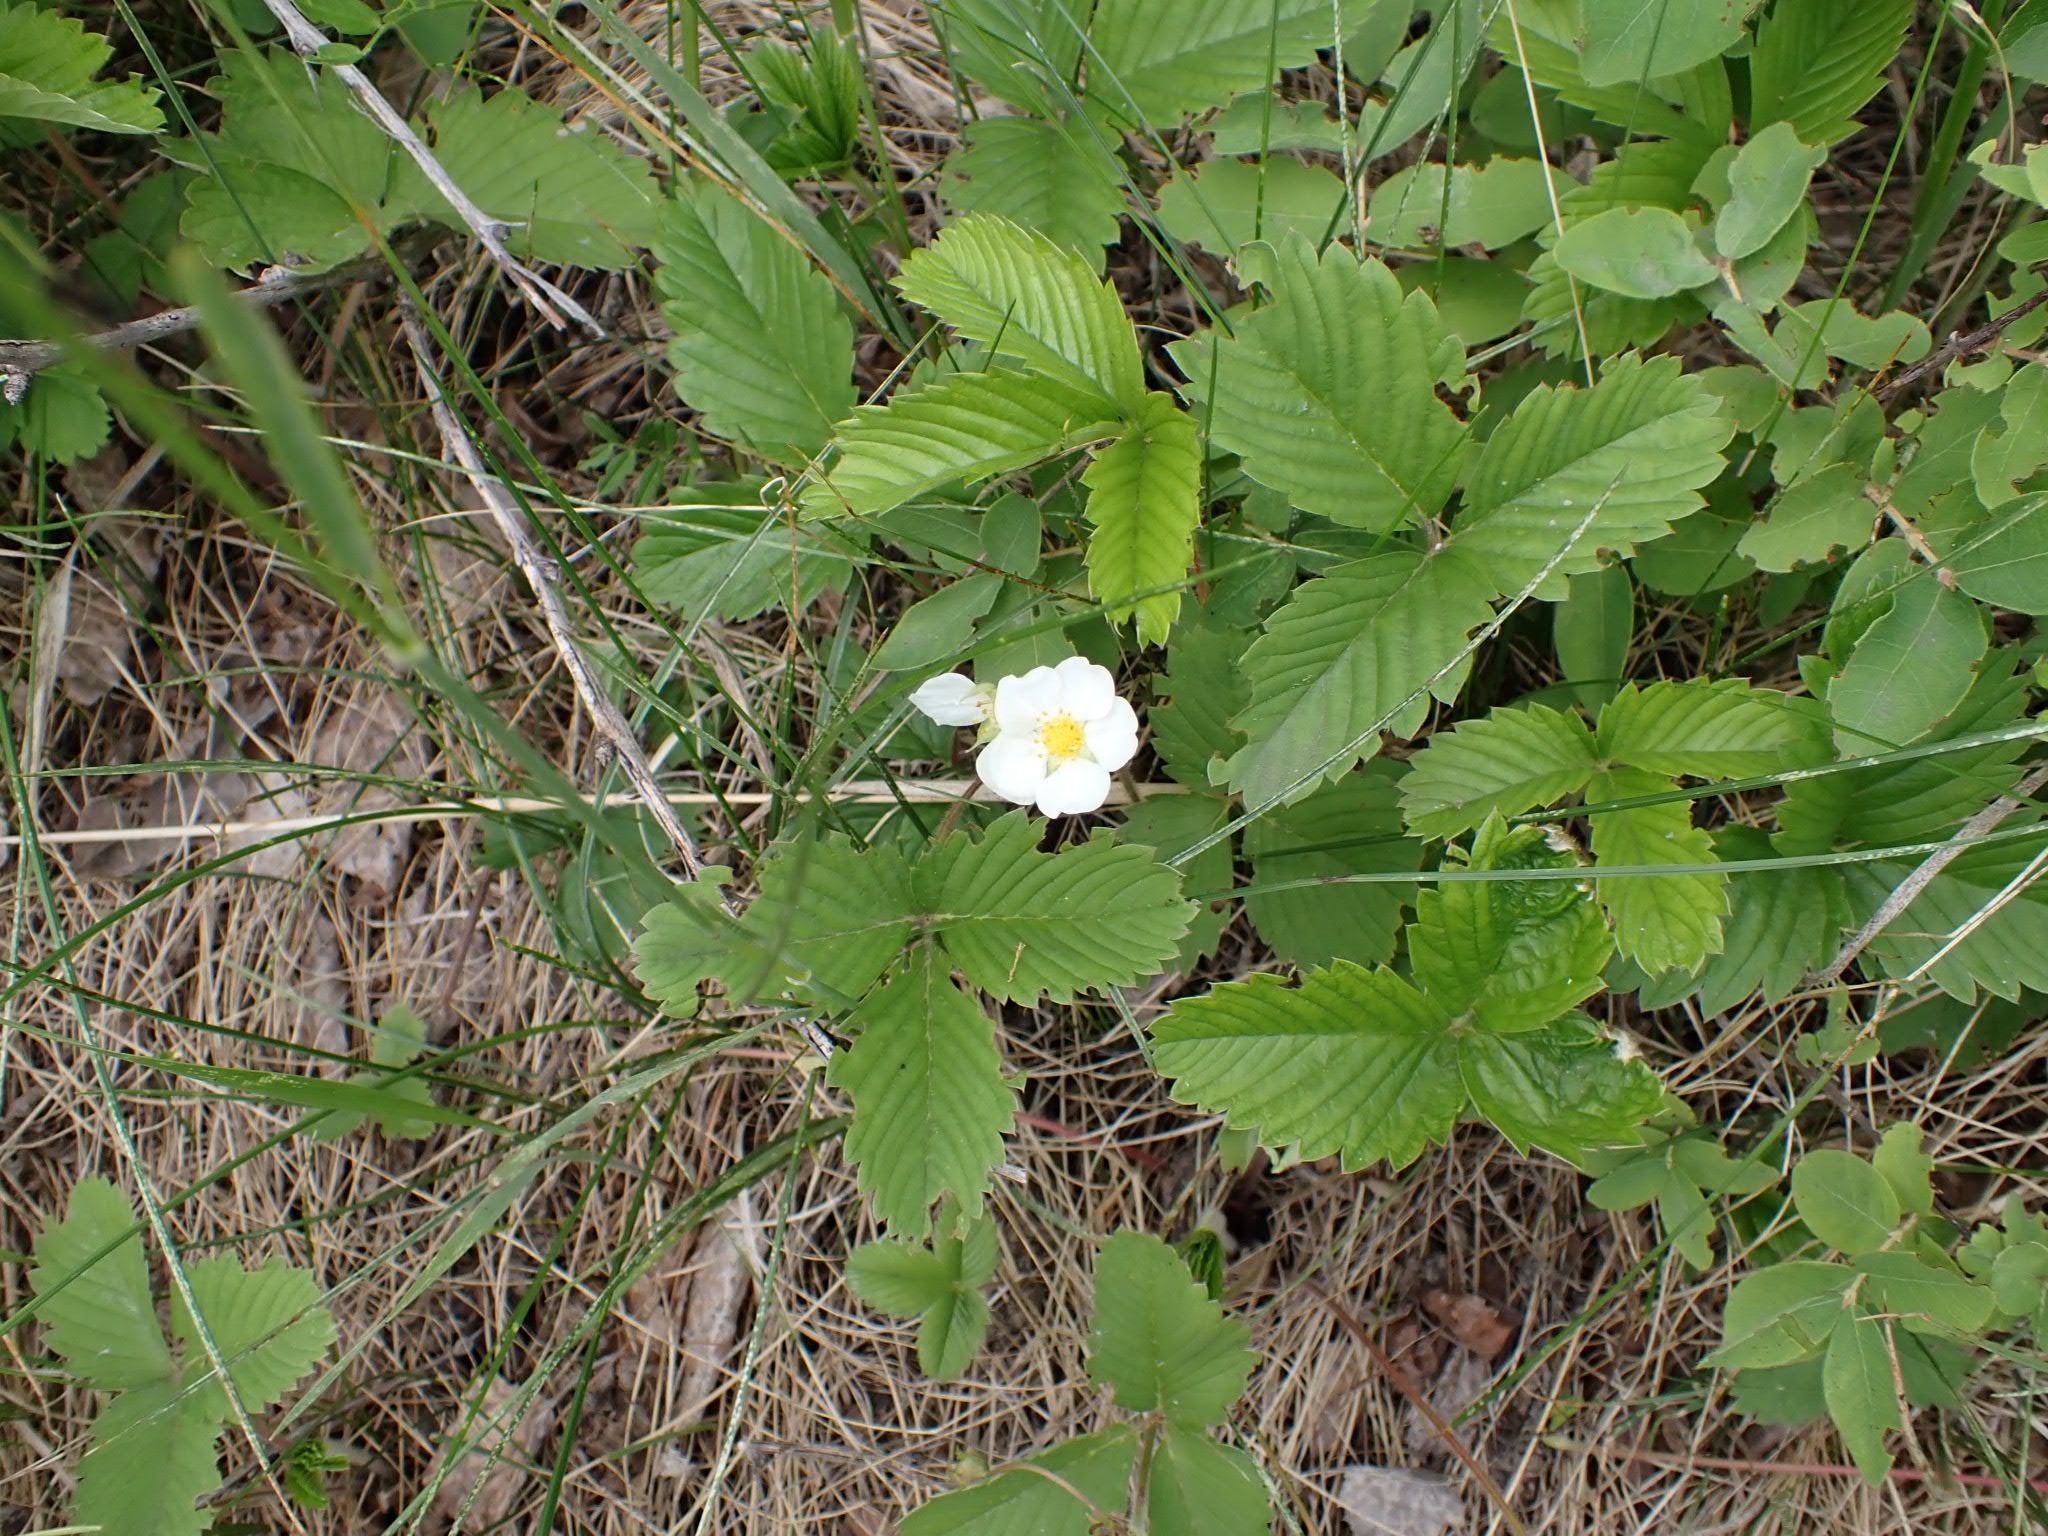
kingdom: Plantae
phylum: Tracheophyta
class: Magnoliopsida
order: Rosales
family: Rosaceae
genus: Fragaria
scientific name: Fragaria viridis
